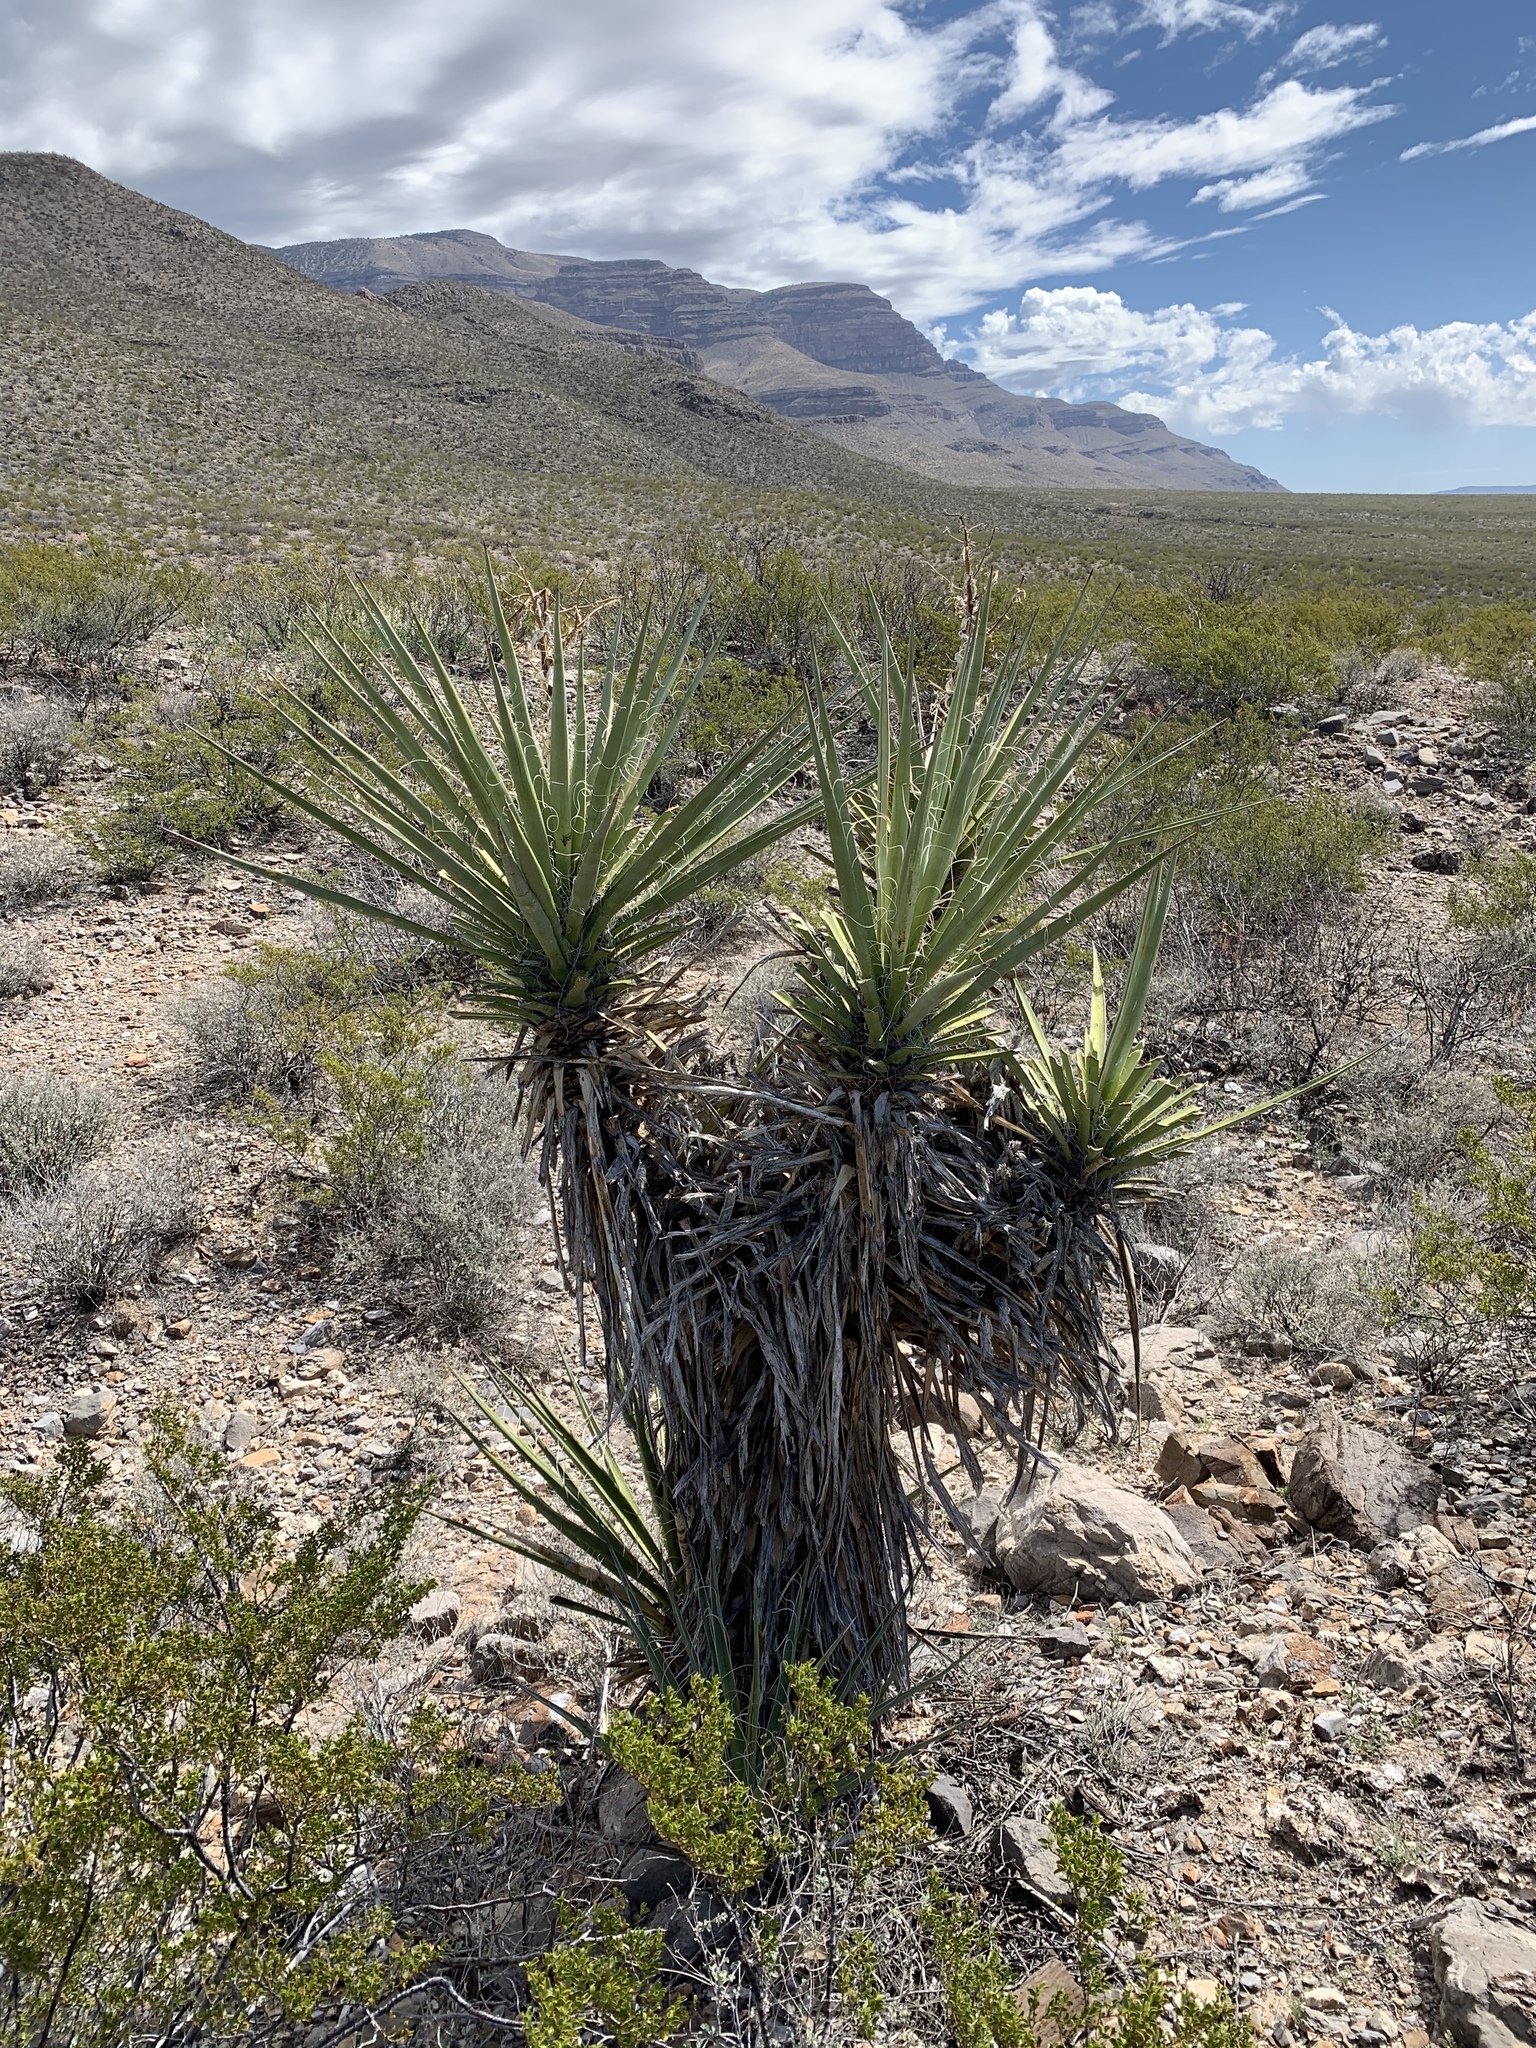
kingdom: Plantae
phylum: Tracheophyta
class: Liliopsida
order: Asparagales
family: Asparagaceae
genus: Yucca
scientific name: Yucca treculiana
